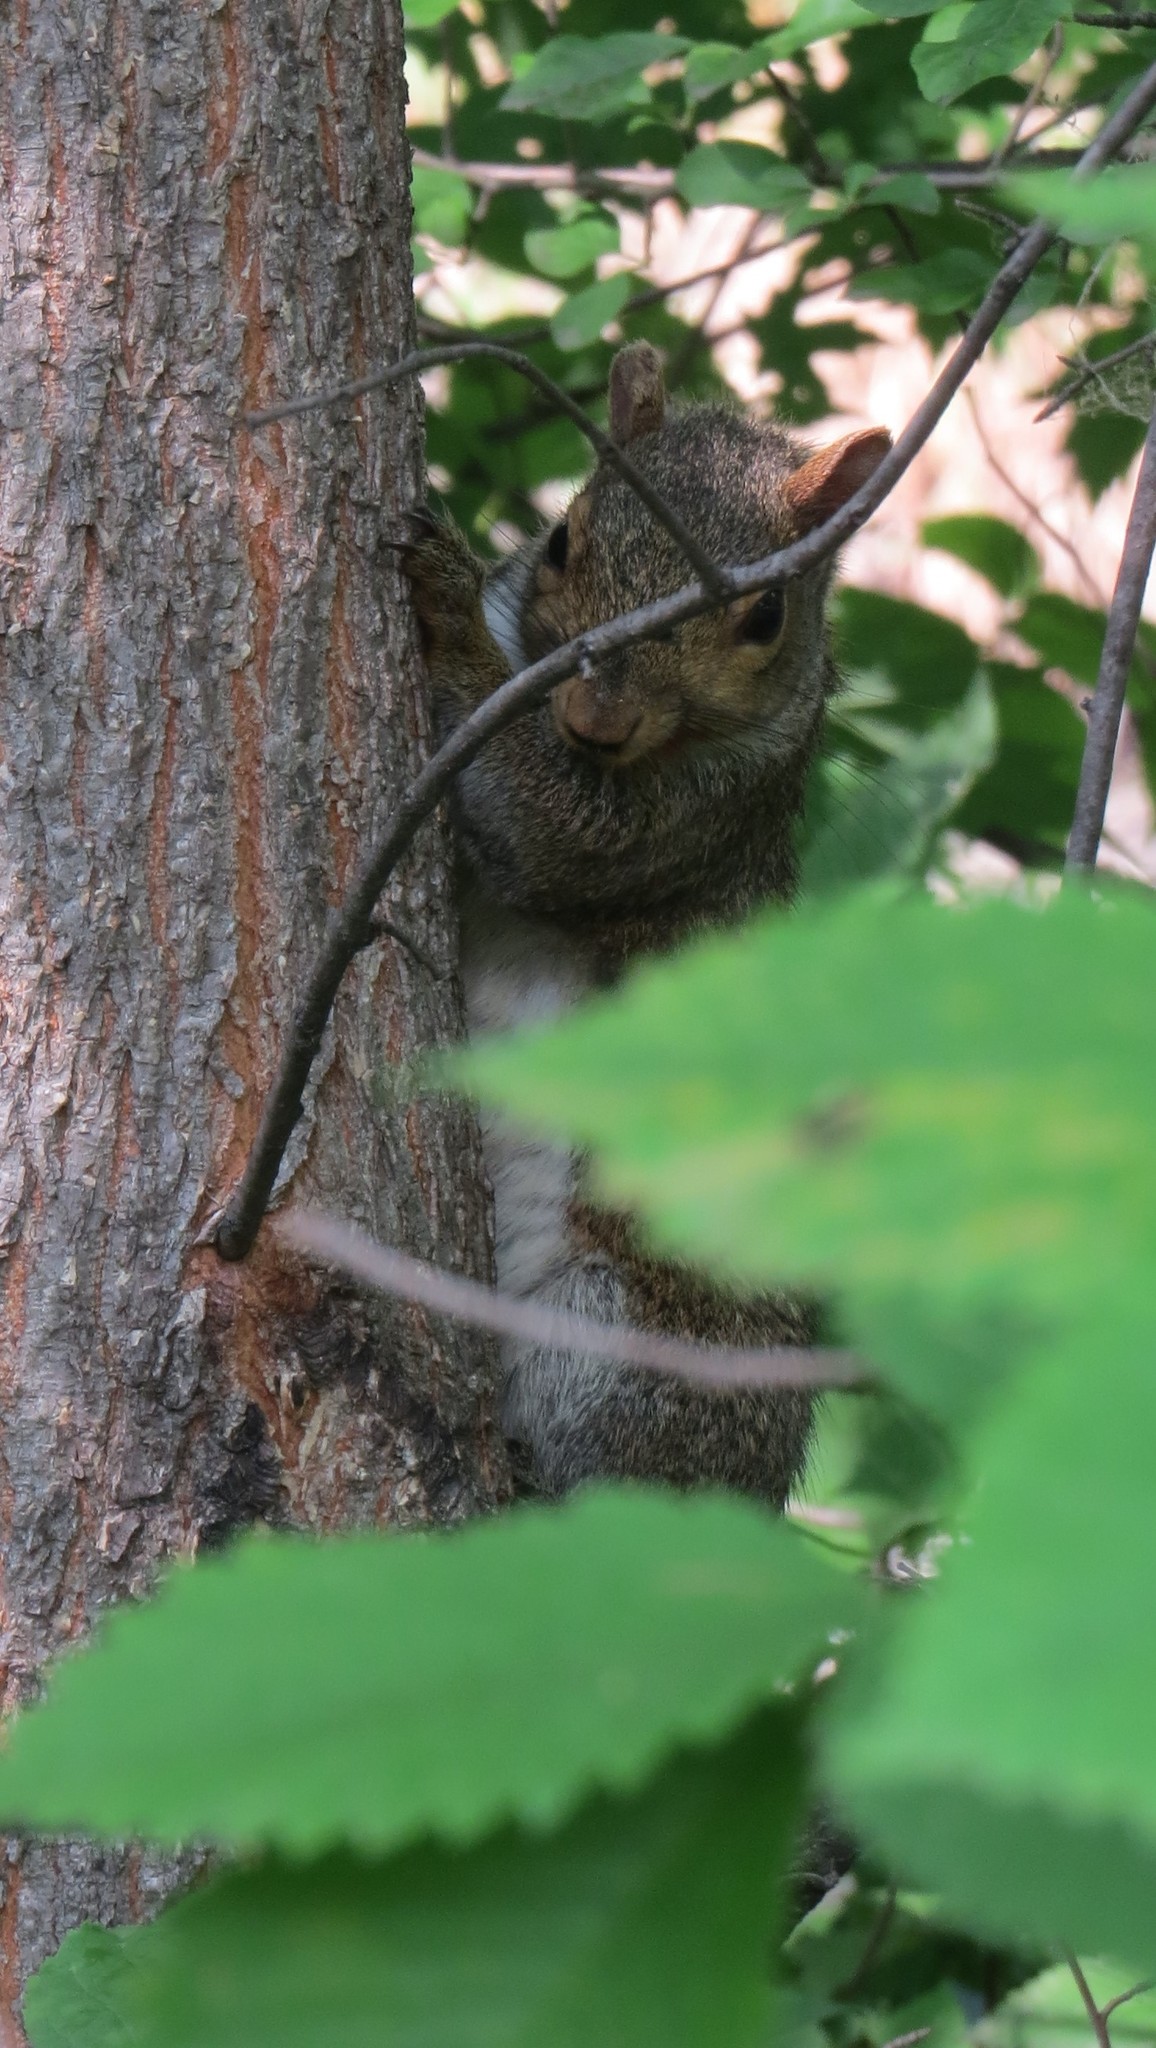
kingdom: Animalia
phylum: Chordata
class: Mammalia
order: Rodentia
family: Sciuridae
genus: Sciurus
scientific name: Sciurus carolinensis
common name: Eastern gray squirrel
